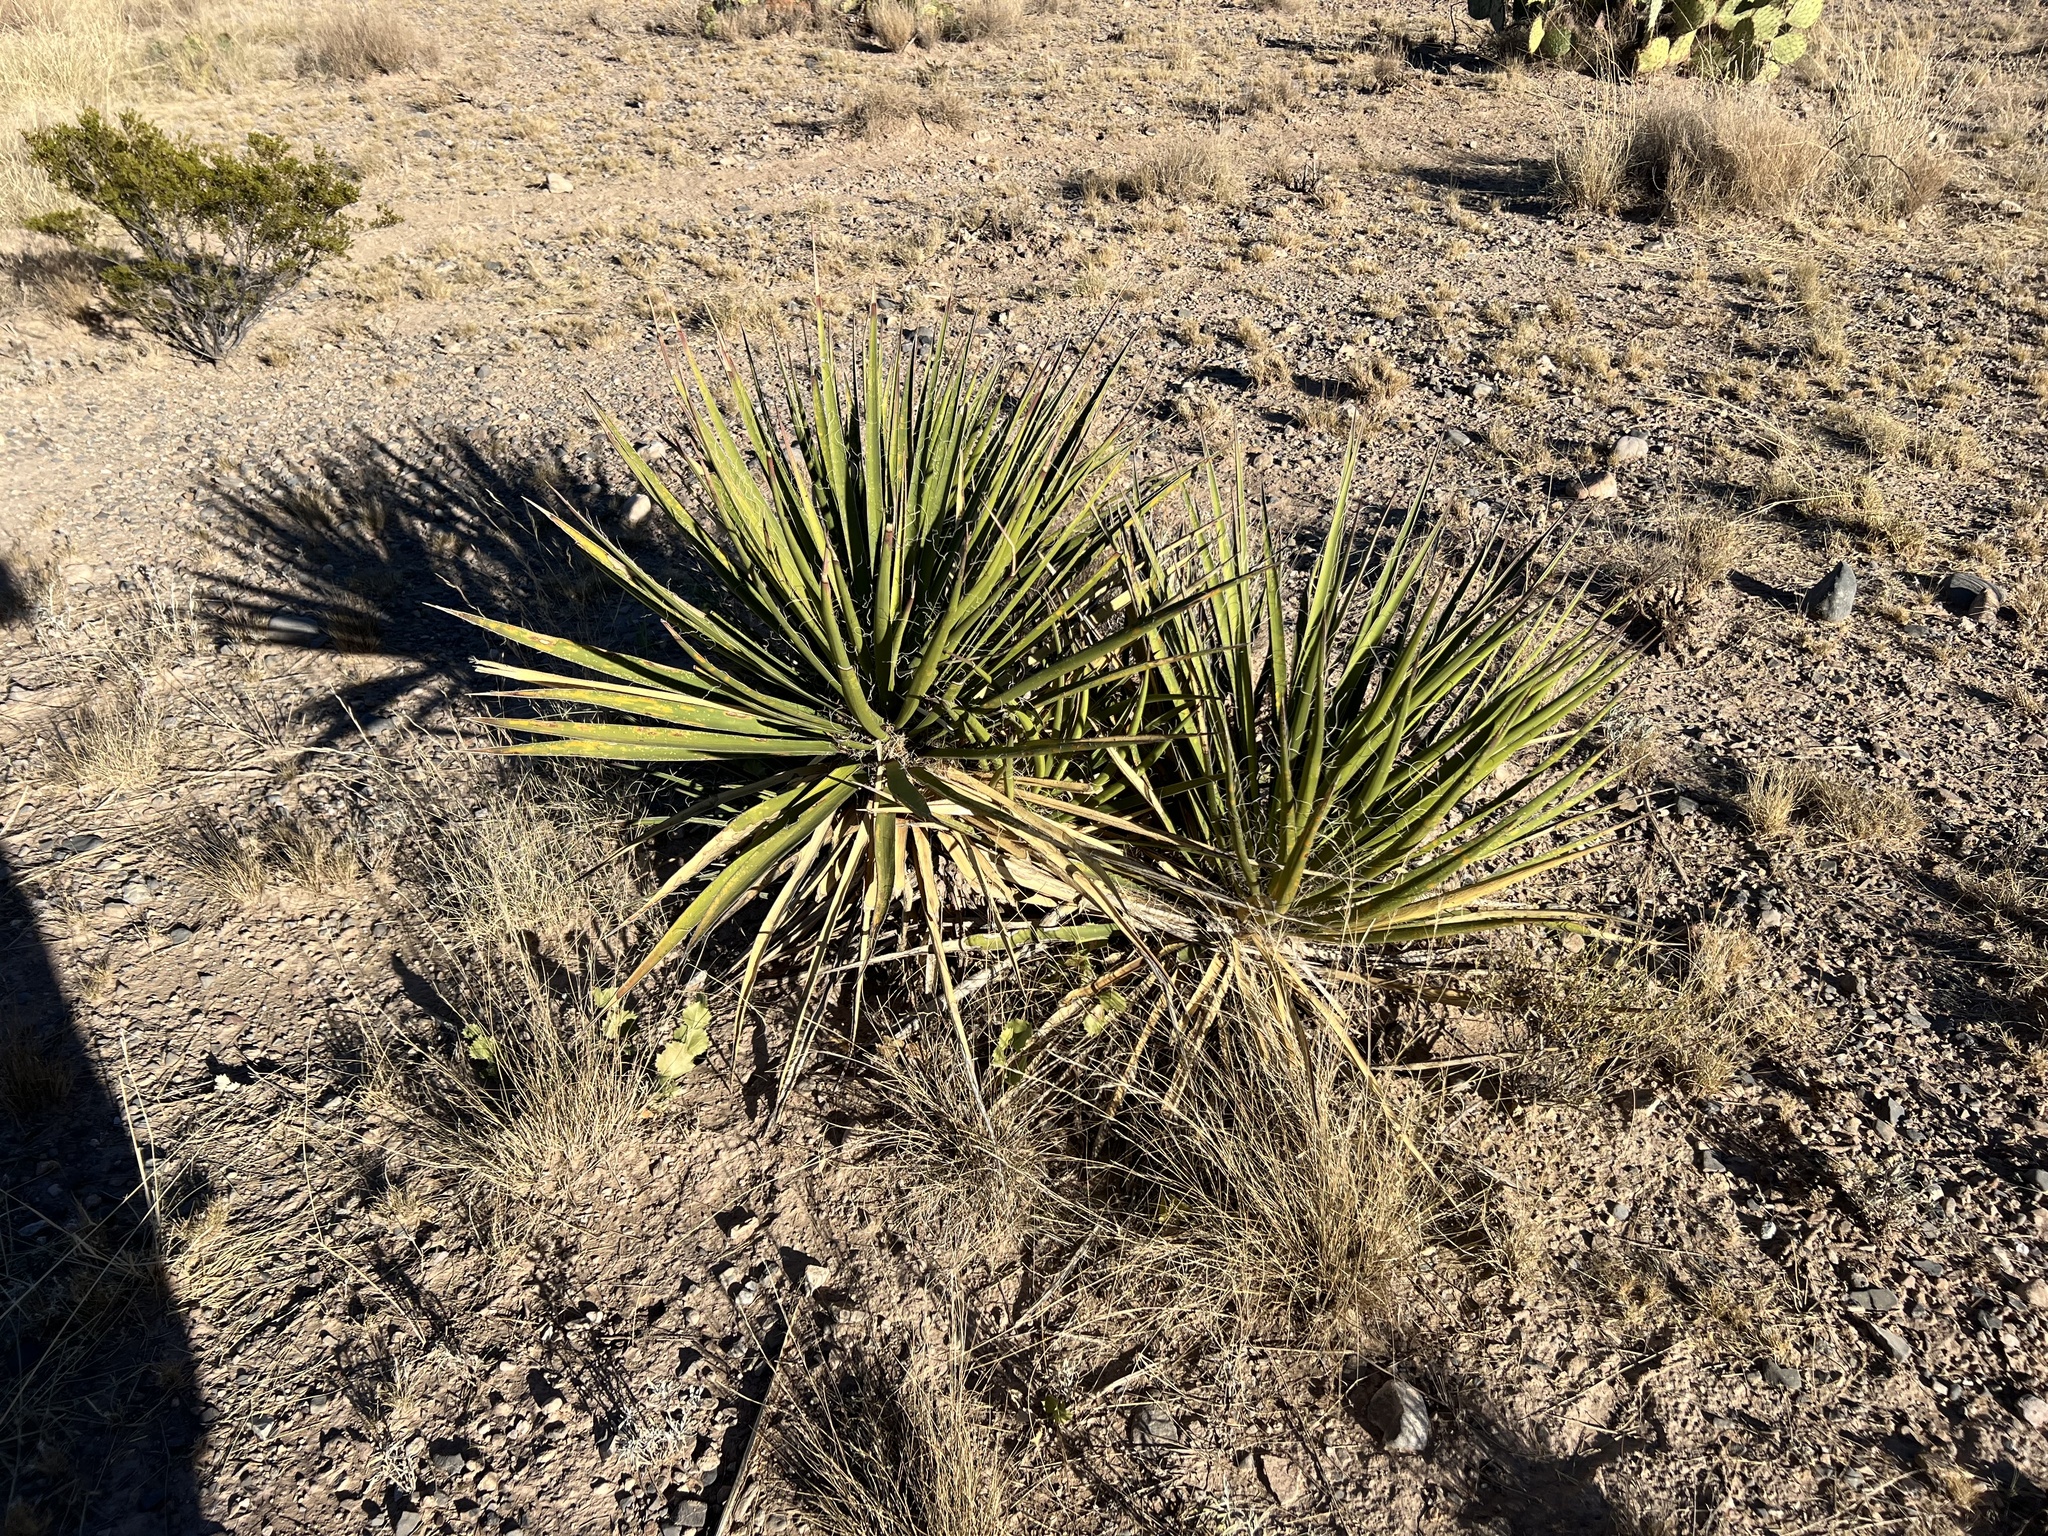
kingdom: Plantae
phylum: Tracheophyta
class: Liliopsida
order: Asparagales
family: Asparagaceae
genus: Yucca
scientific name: Yucca baccata
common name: Banana yucca
